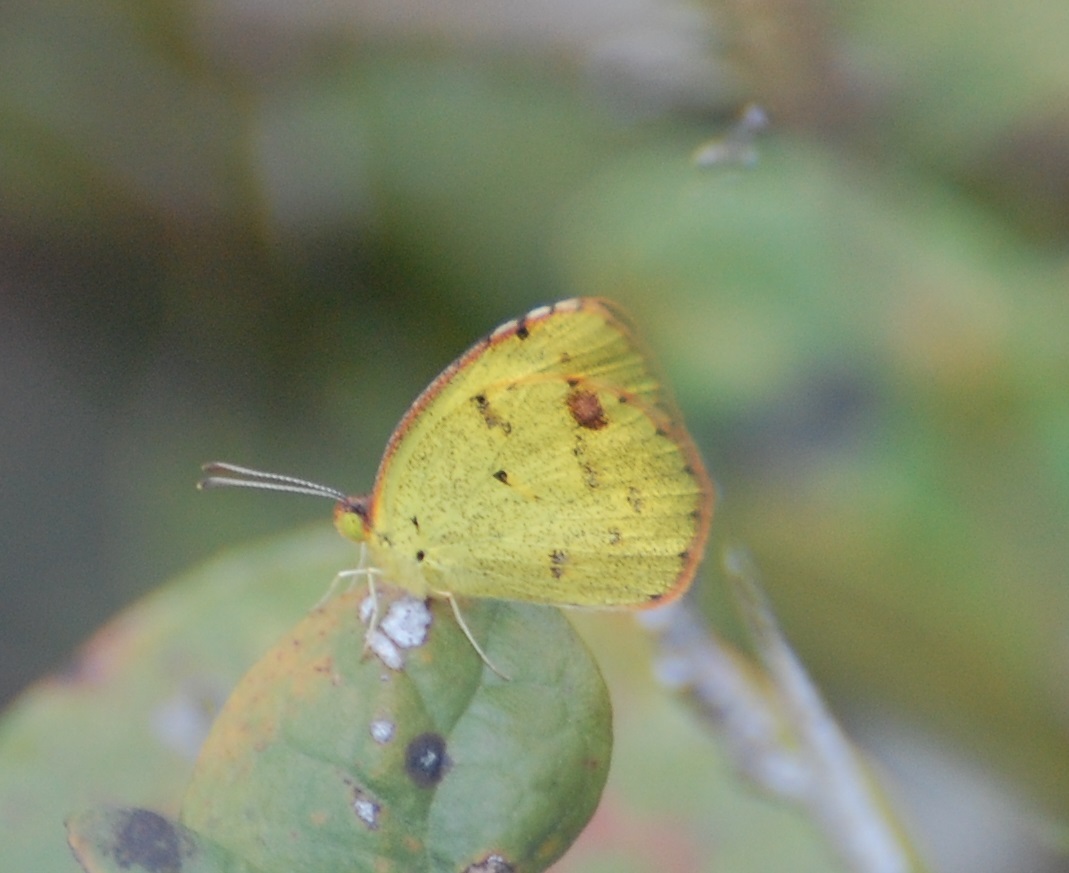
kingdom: Animalia
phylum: Arthropoda
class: Insecta
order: Lepidoptera
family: Pieridae
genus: Pyrisitia
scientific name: Pyrisitia lisa
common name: Little yellow
